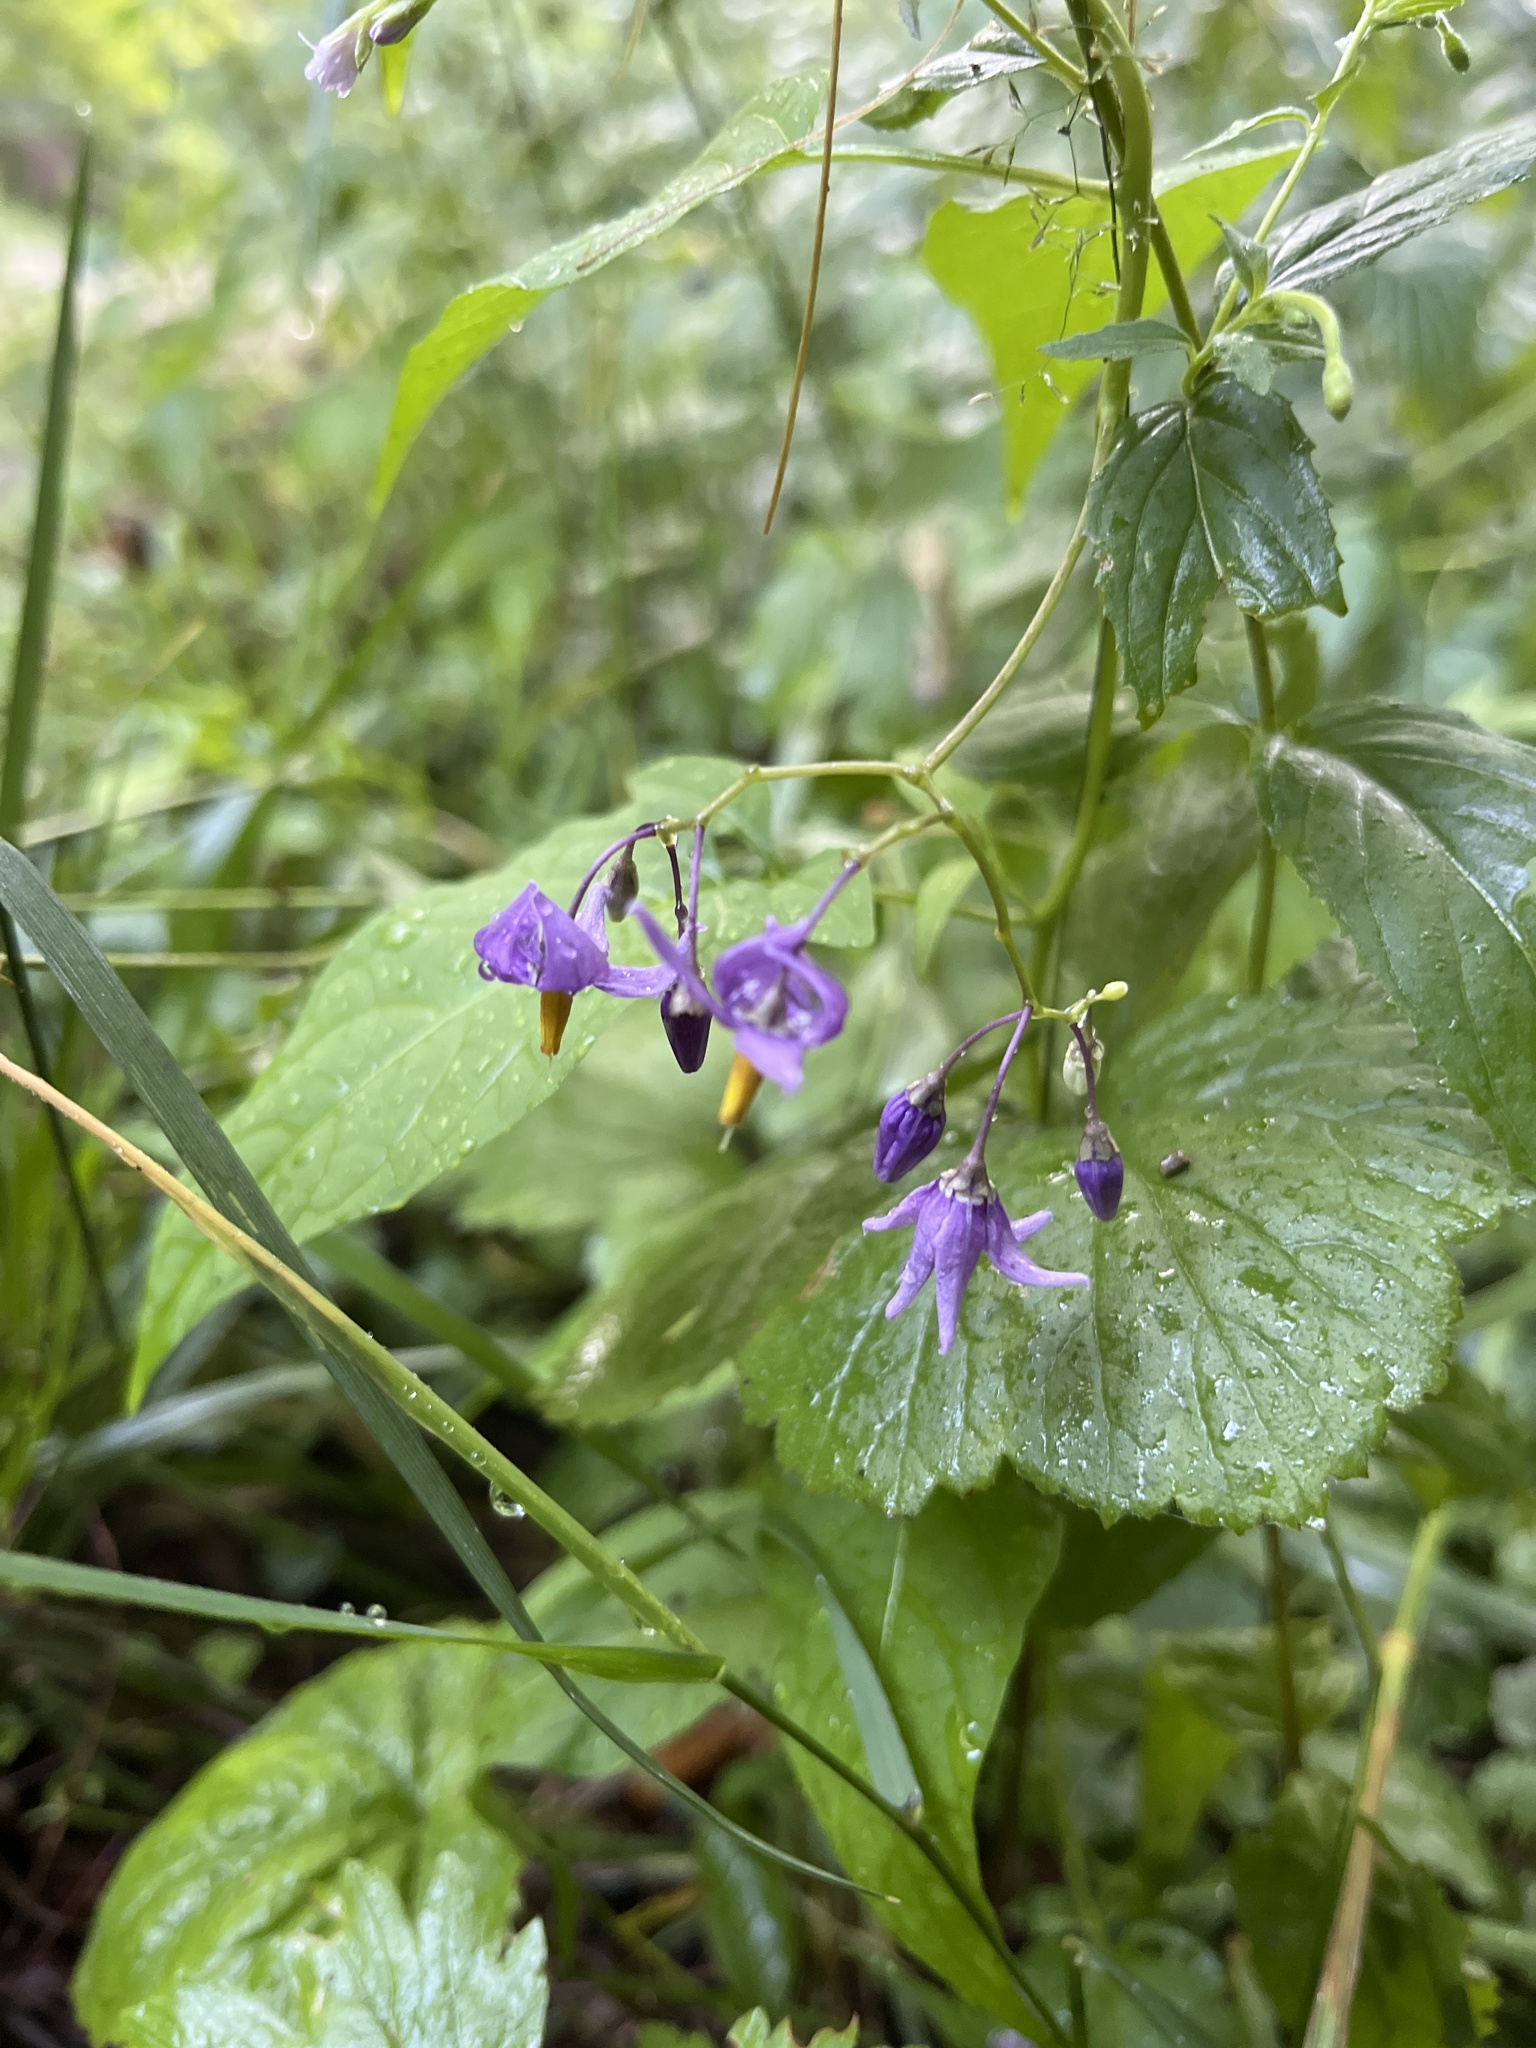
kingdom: Plantae
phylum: Tracheophyta
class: Magnoliopsida
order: Solanales
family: Solanaceae
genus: Solanum
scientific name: Solanum dulcamara
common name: Climbing nightshade
